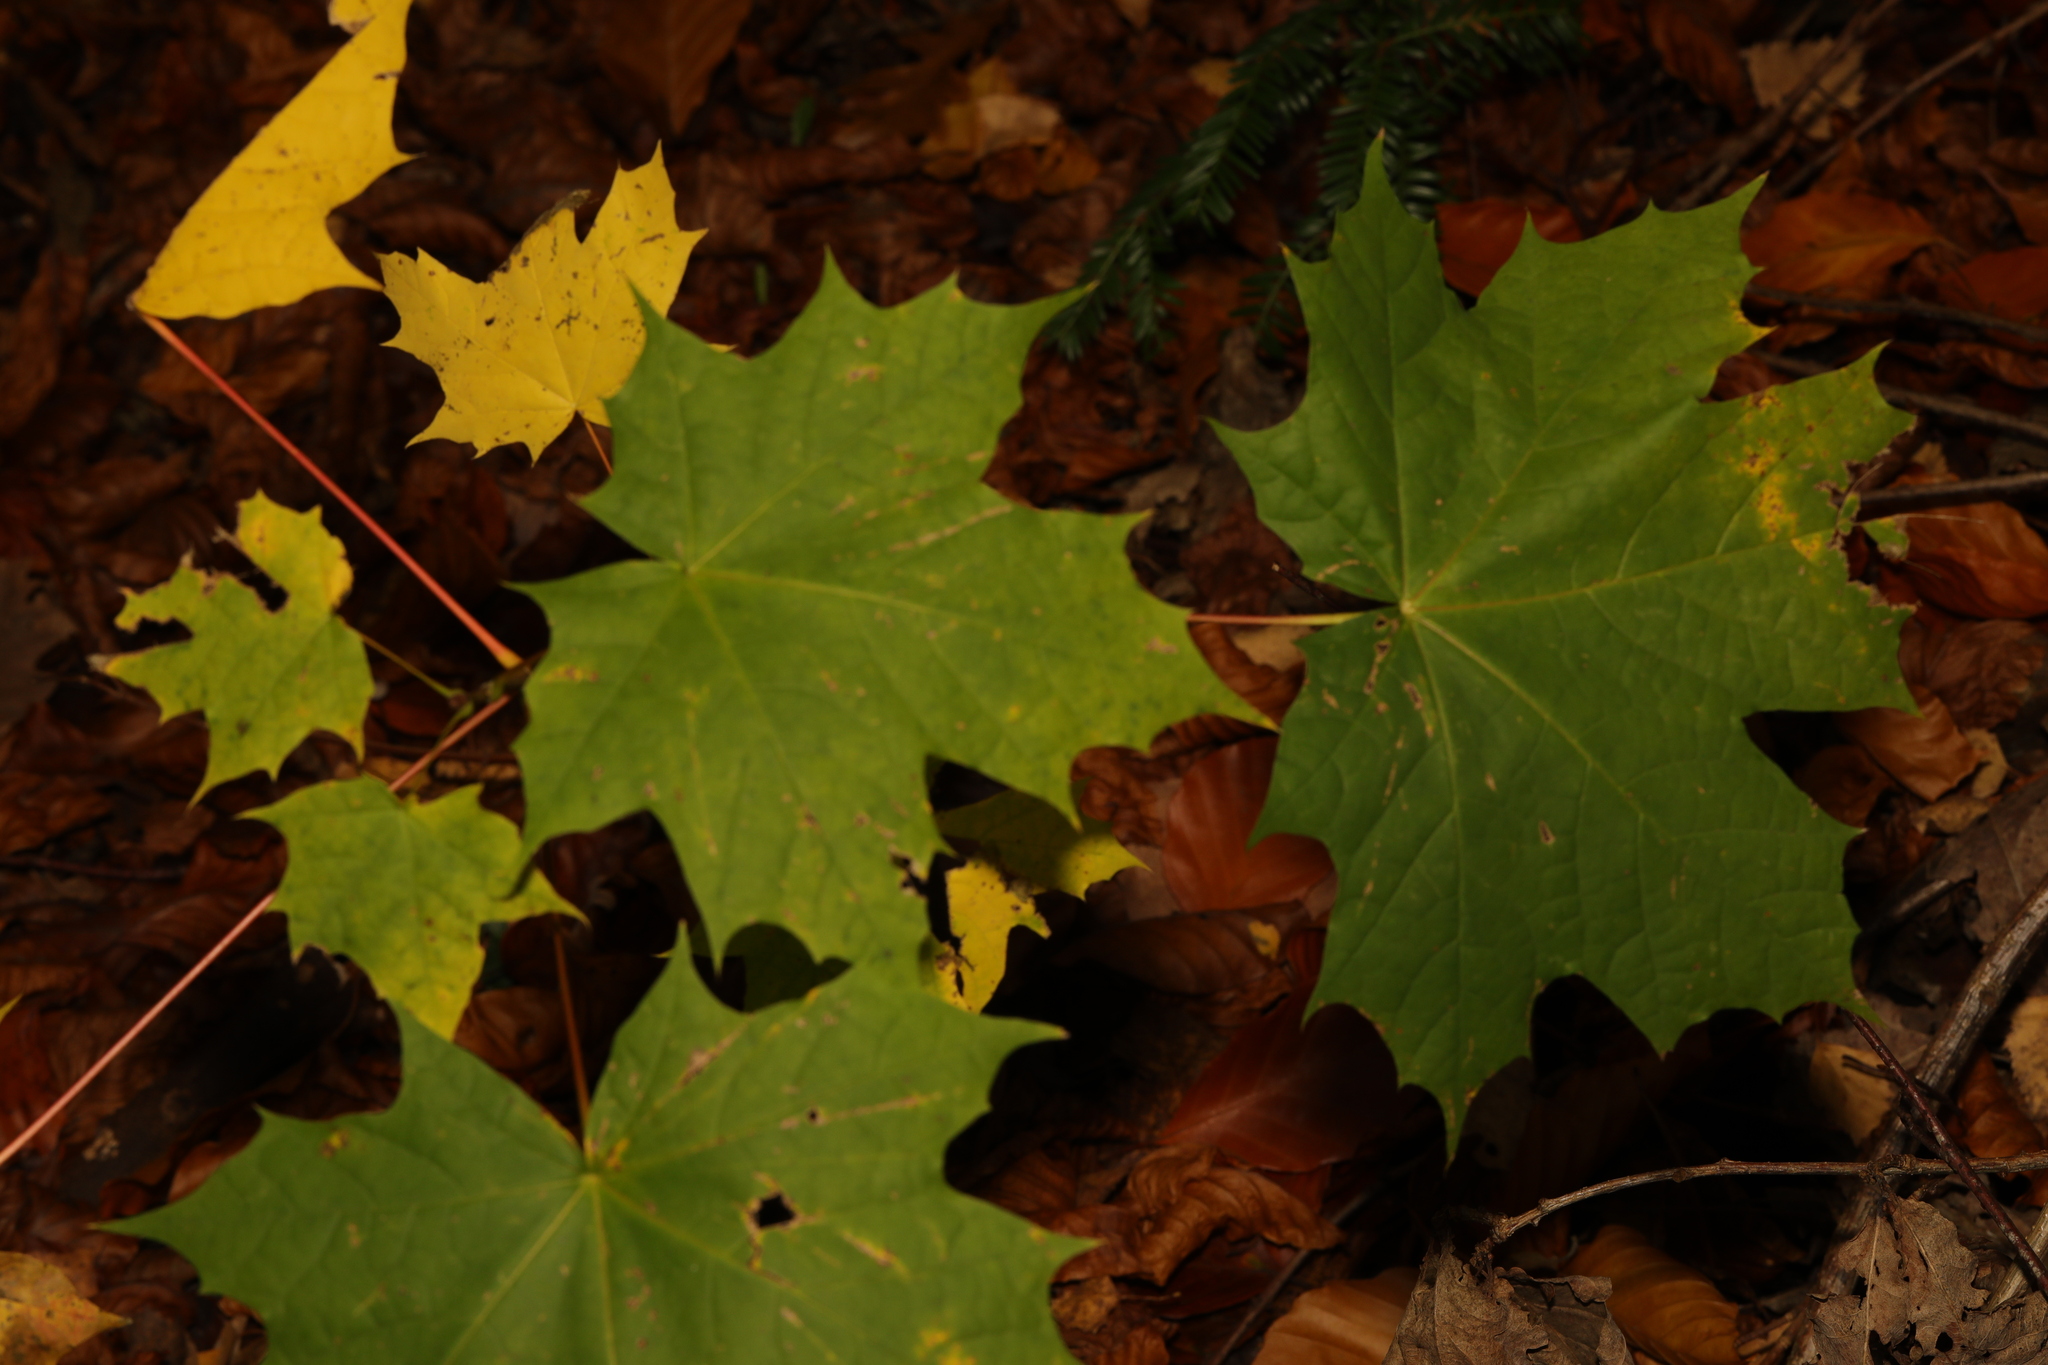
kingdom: Plantae
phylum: Tracheophyta
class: Magnoliopsida
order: Sapindales
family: Sapindaceae
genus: Acer
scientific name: Acer platanoides
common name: Norway maple
